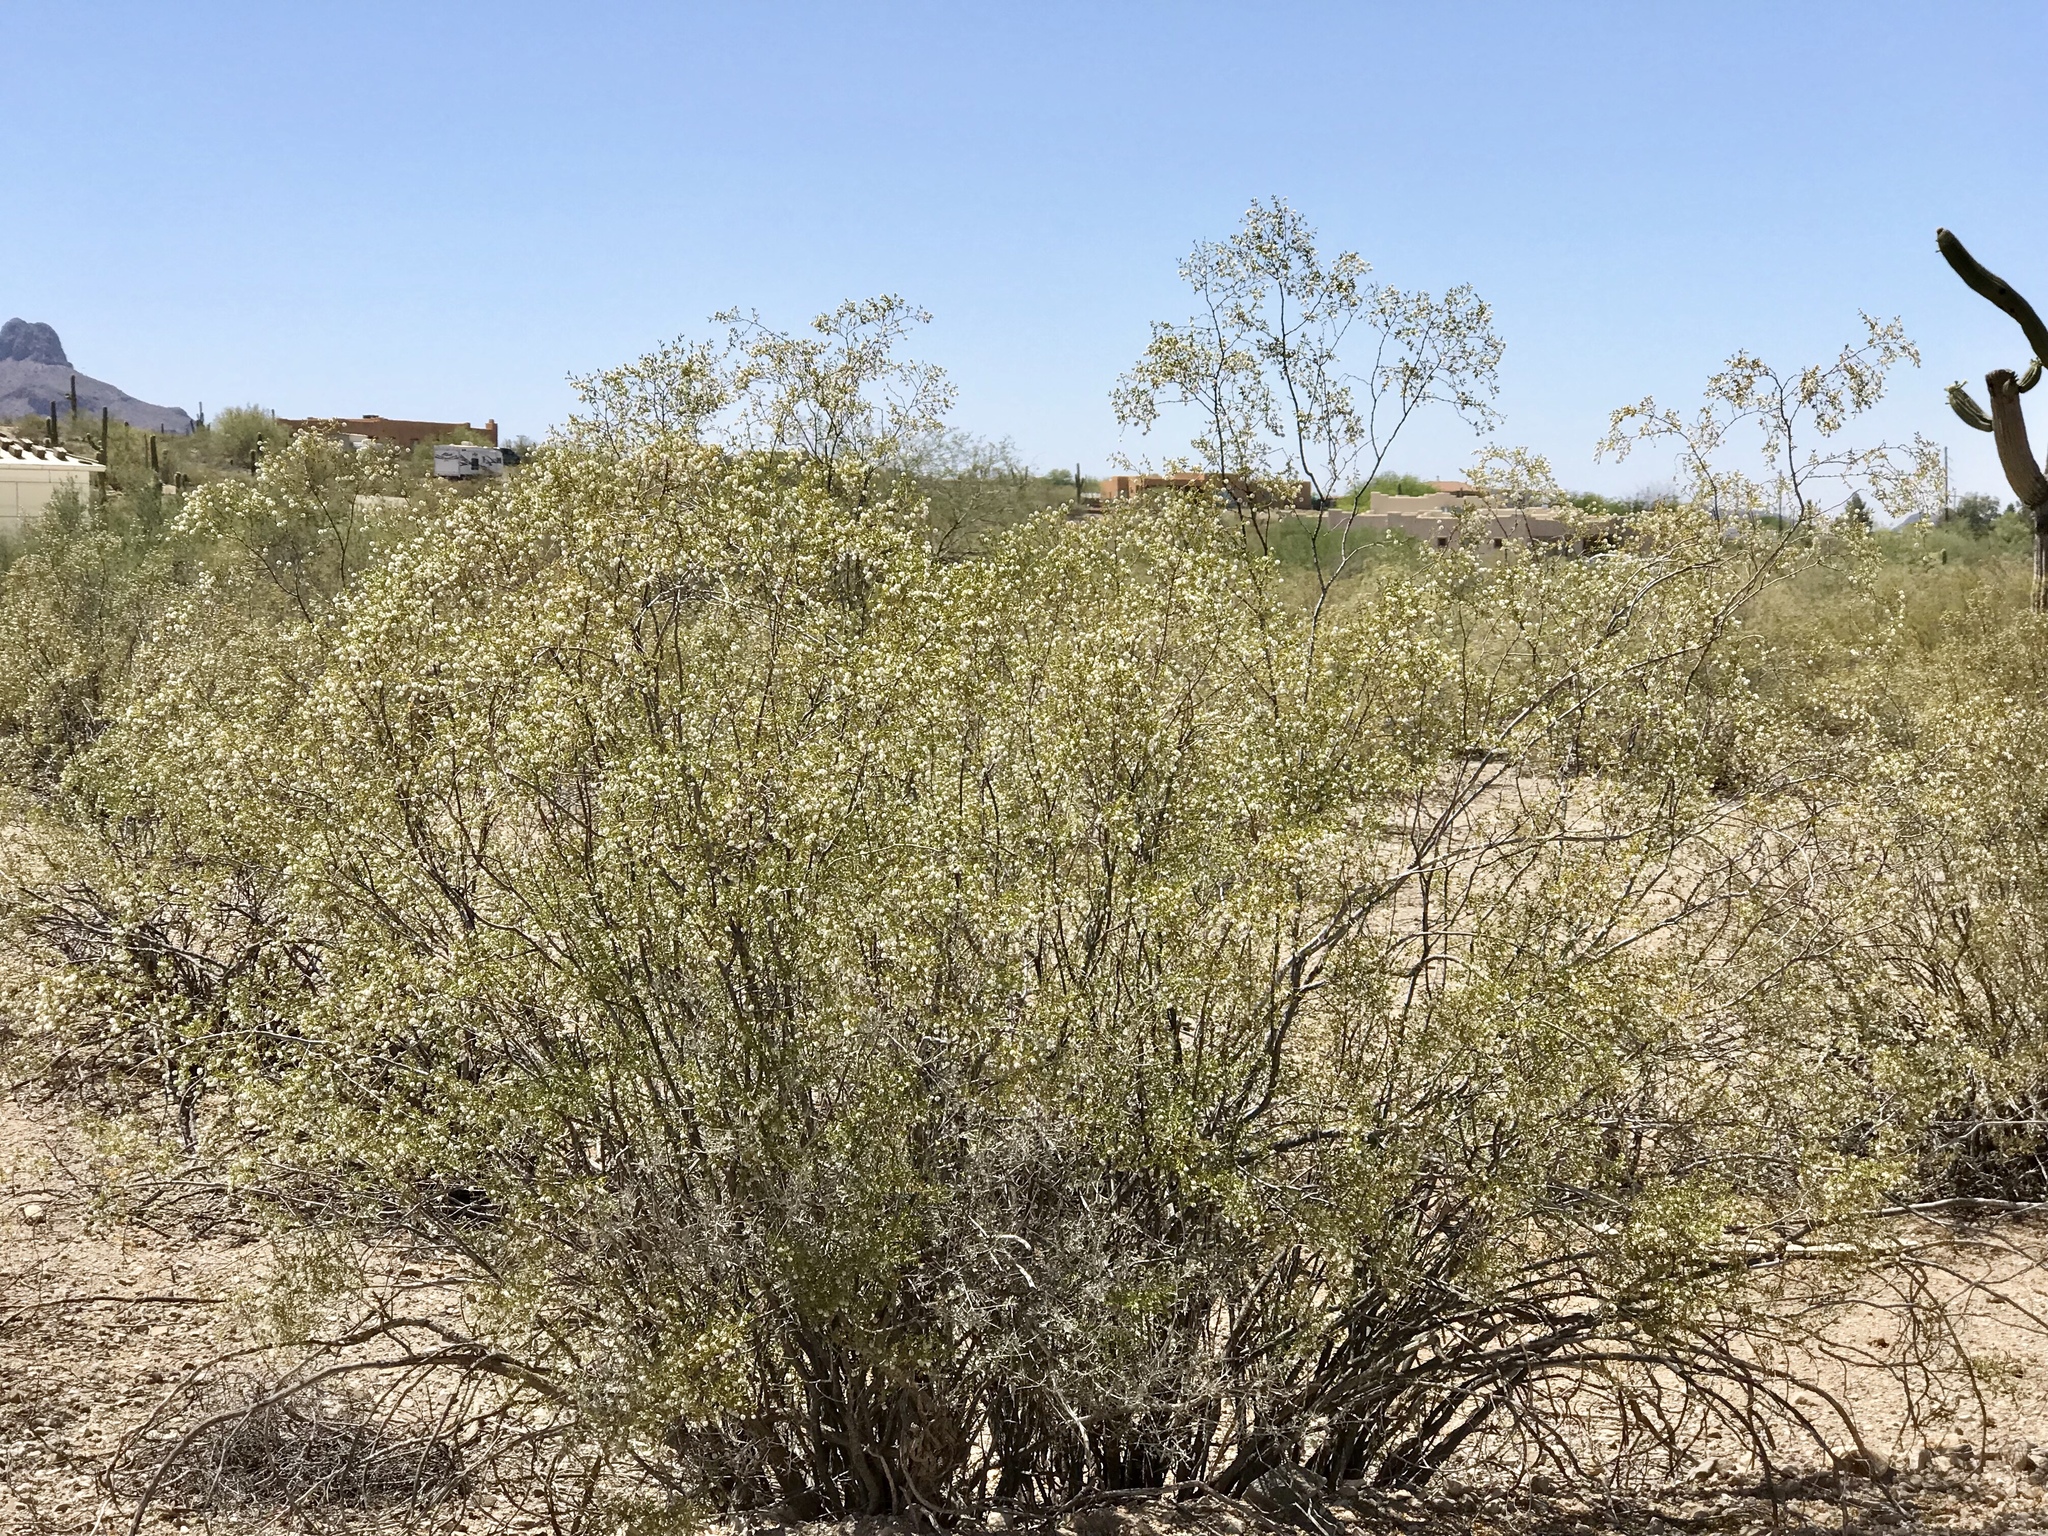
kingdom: Plantae
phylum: Tracheophyta
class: Magnoliopsida
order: Zygophyllales
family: Zygophyllaceae
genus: Larrea
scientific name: Larrea tridentata
